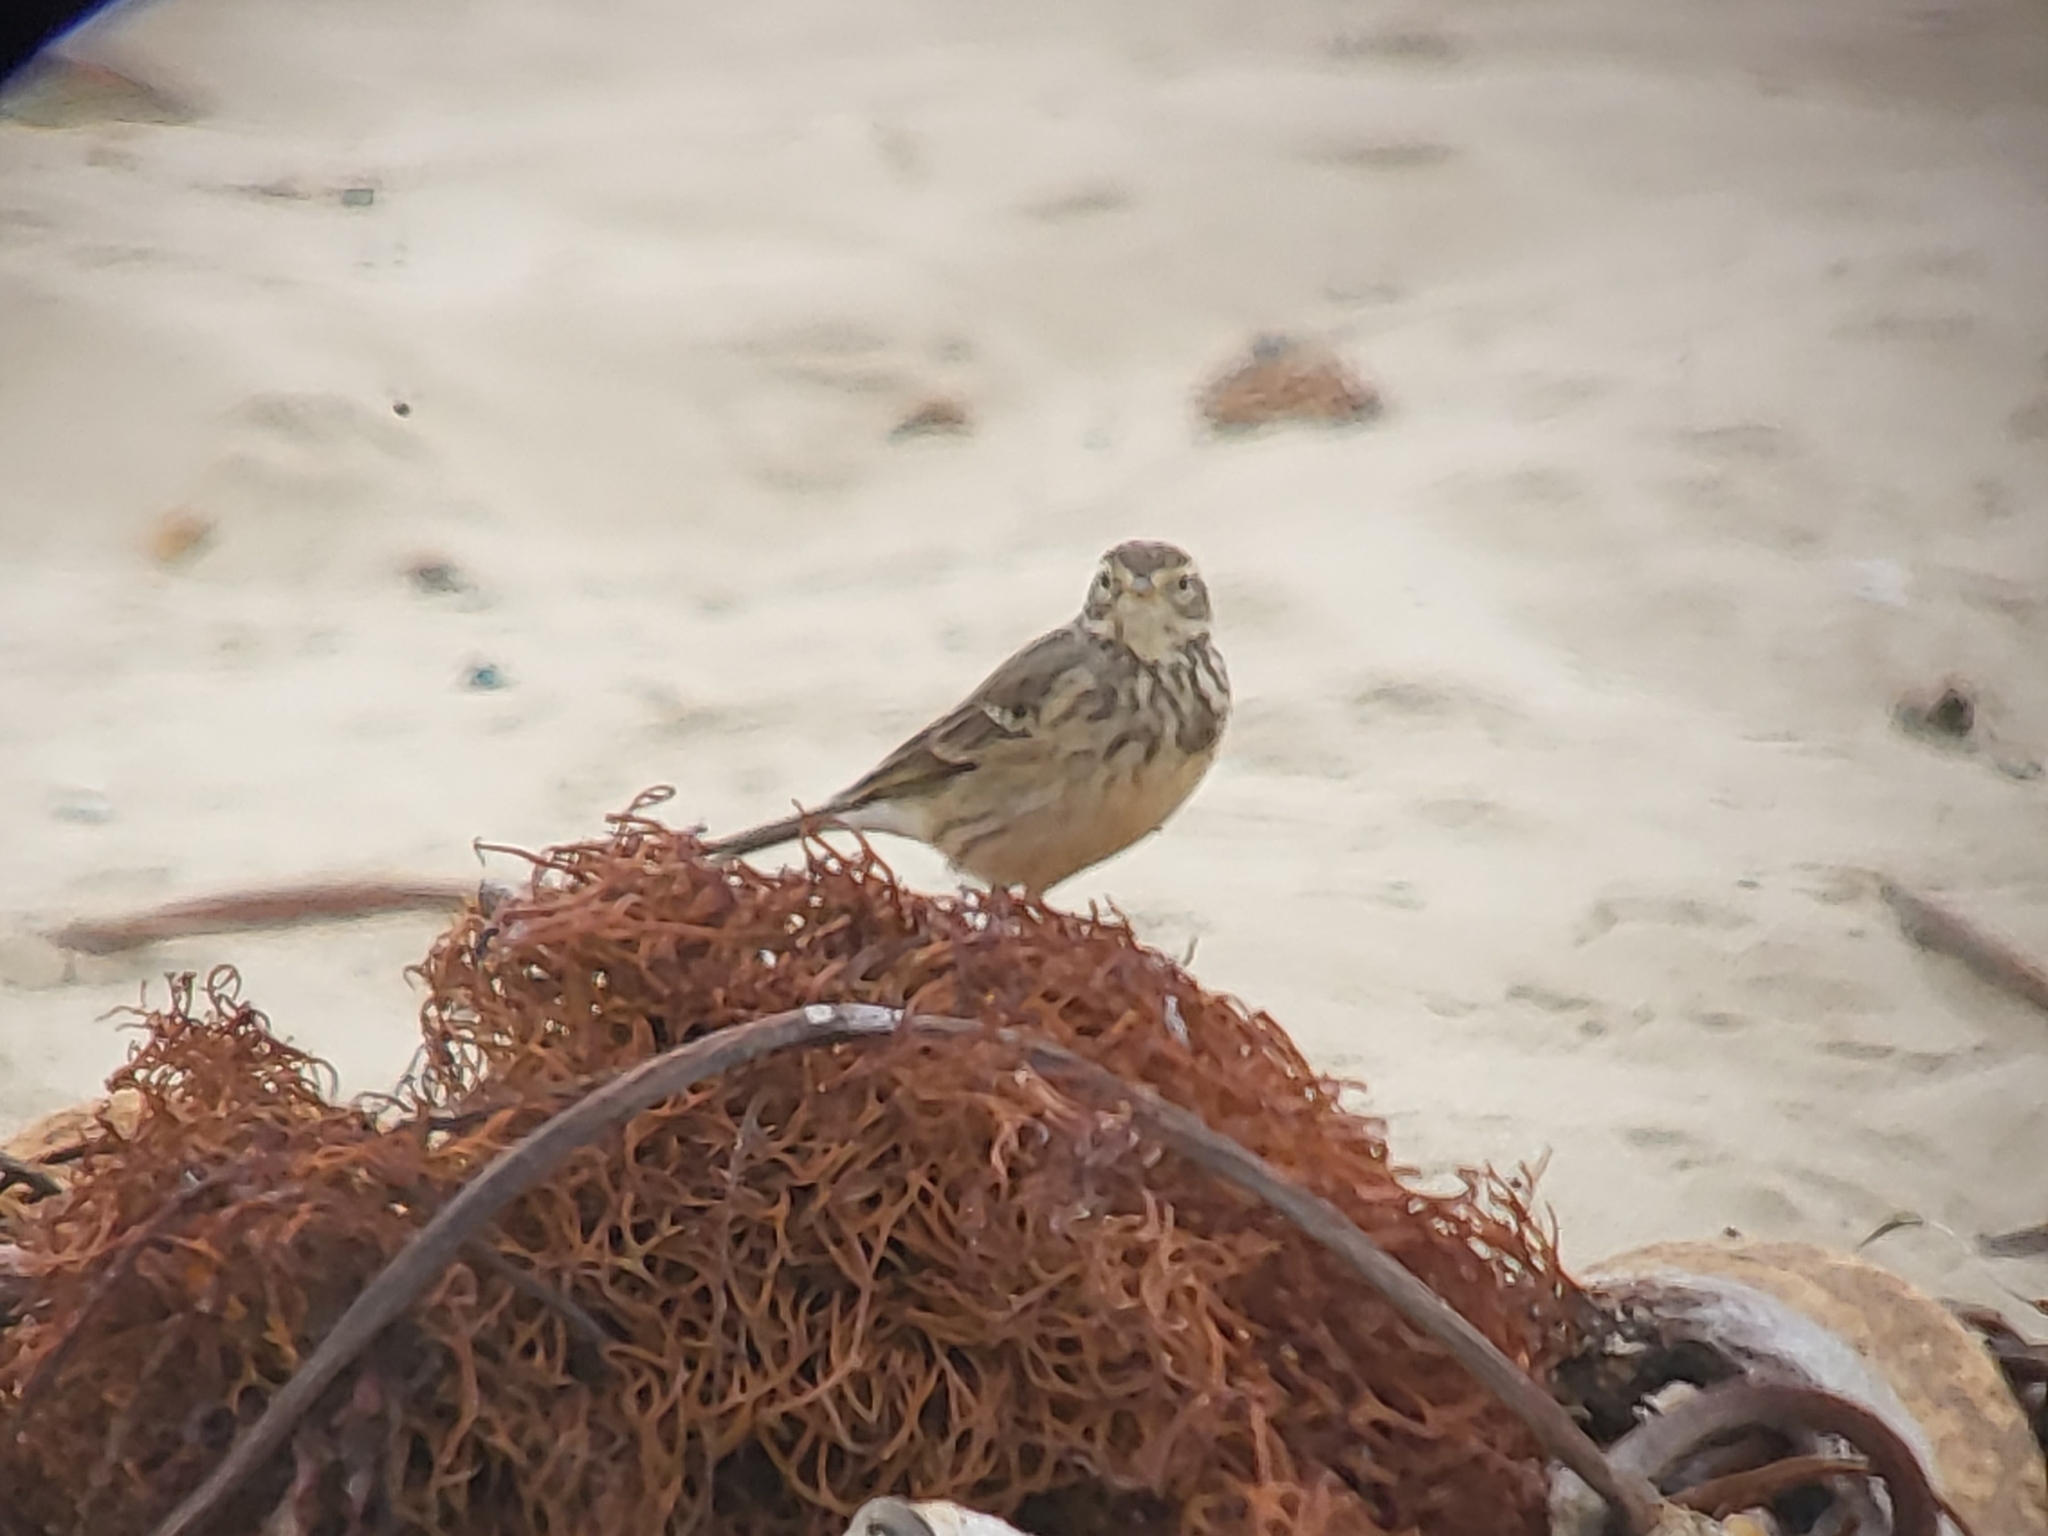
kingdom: Animalia
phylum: Chordata
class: Aves
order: Passeriformes
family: Motacillidae
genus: Anthus
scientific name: Anthus rubescens
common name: Buff-bellied pipit
